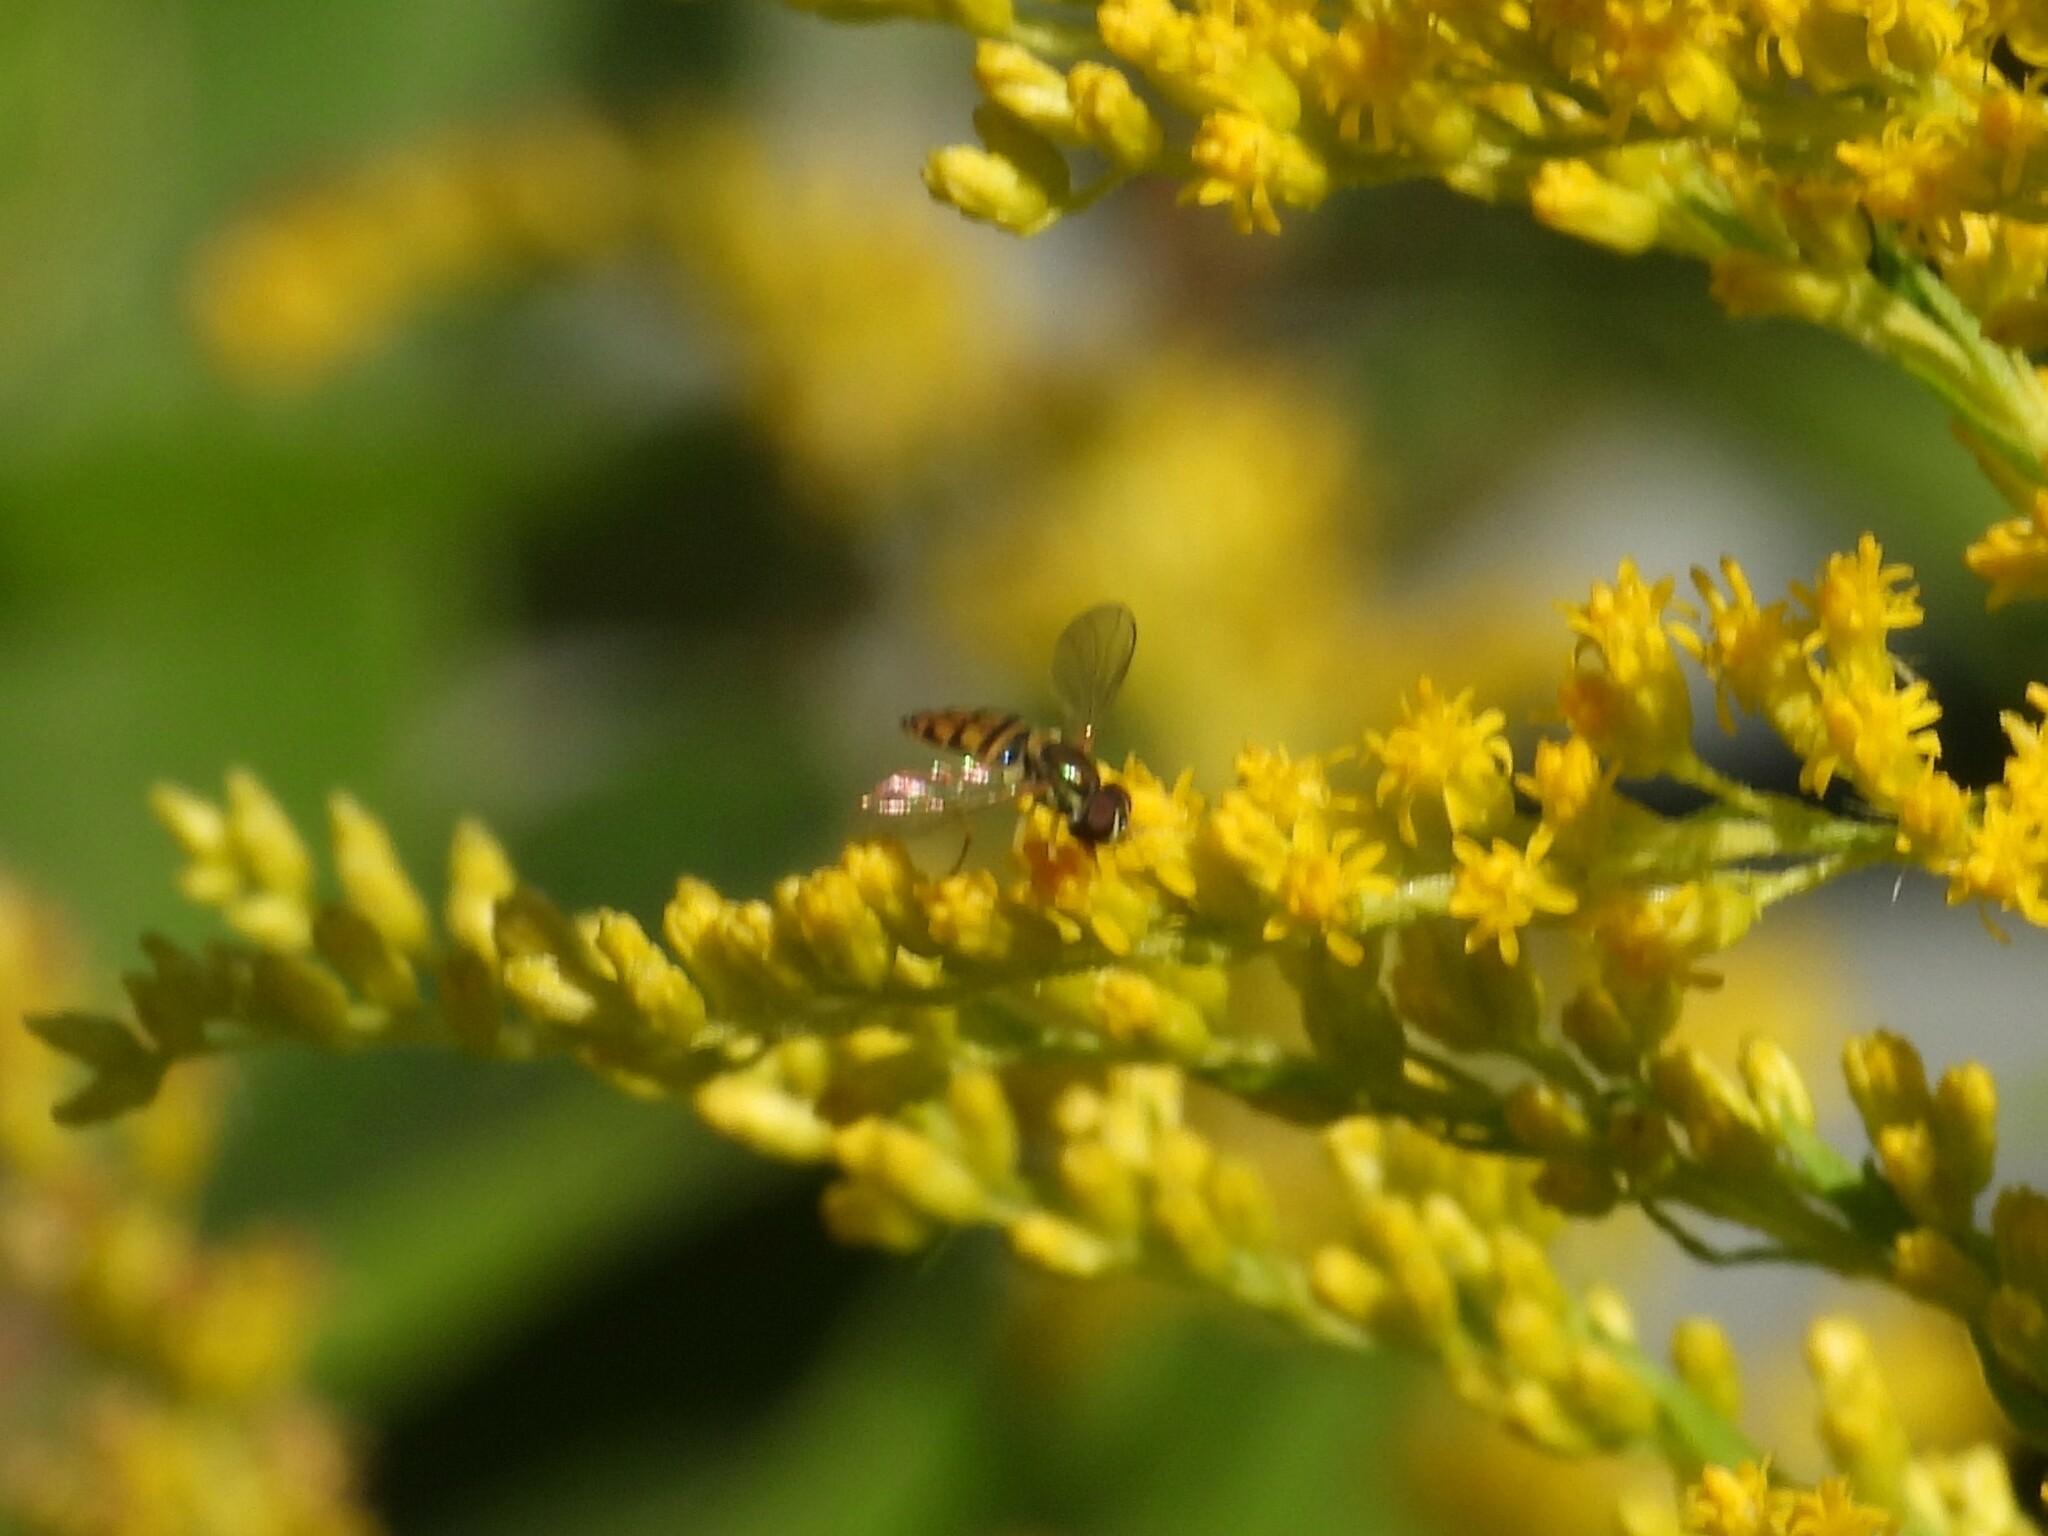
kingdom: Animalia
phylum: Arthropoda
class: Insecta
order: Diptera
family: Syrphidae
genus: Toxomerus
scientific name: Toxomerus marginatus
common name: Syrphid fly
